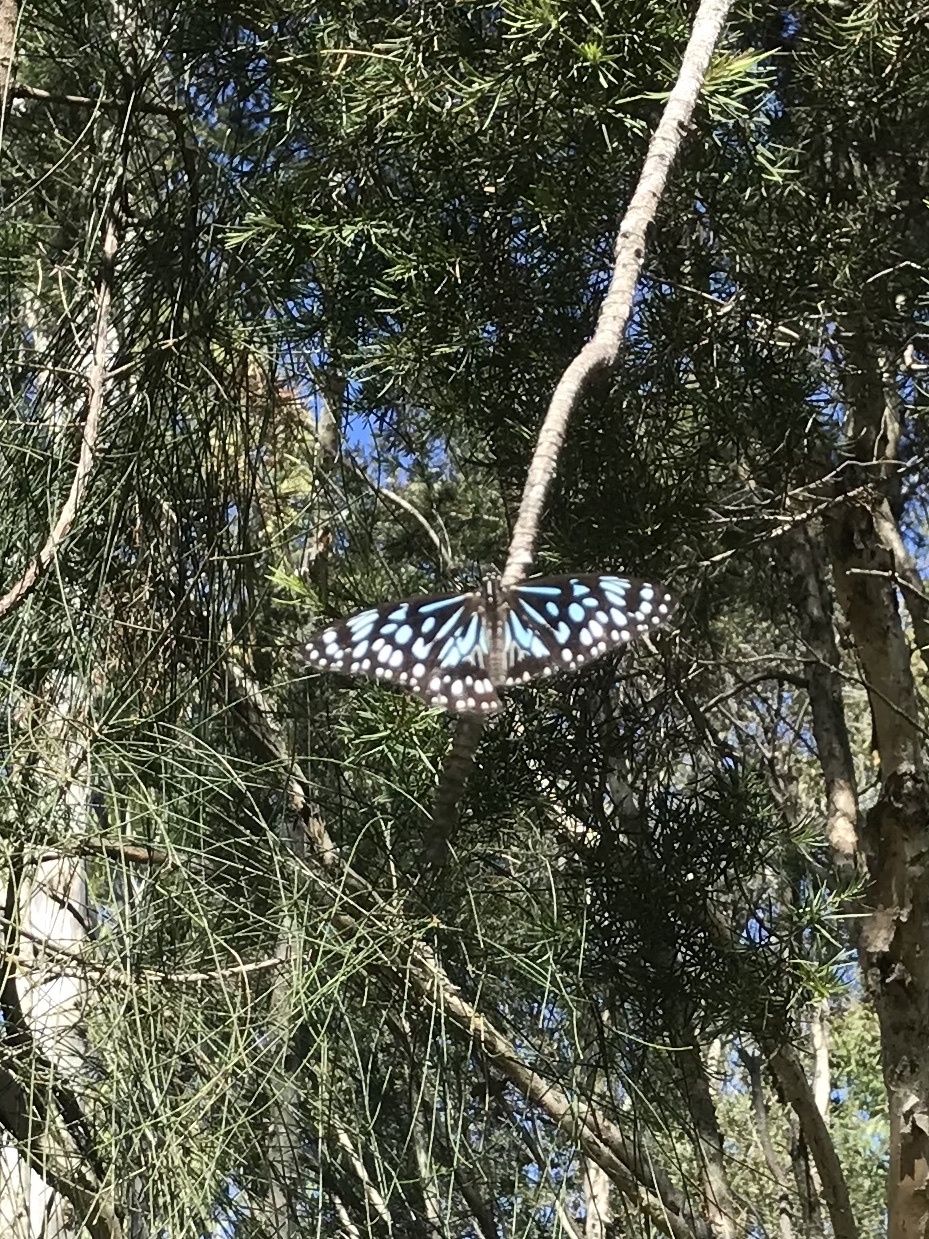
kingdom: Animalia
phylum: Arthropoda
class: Insecta
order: Lepidoptera
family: Nymphalidae
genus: Tirumala
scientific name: Tirumala hamata
